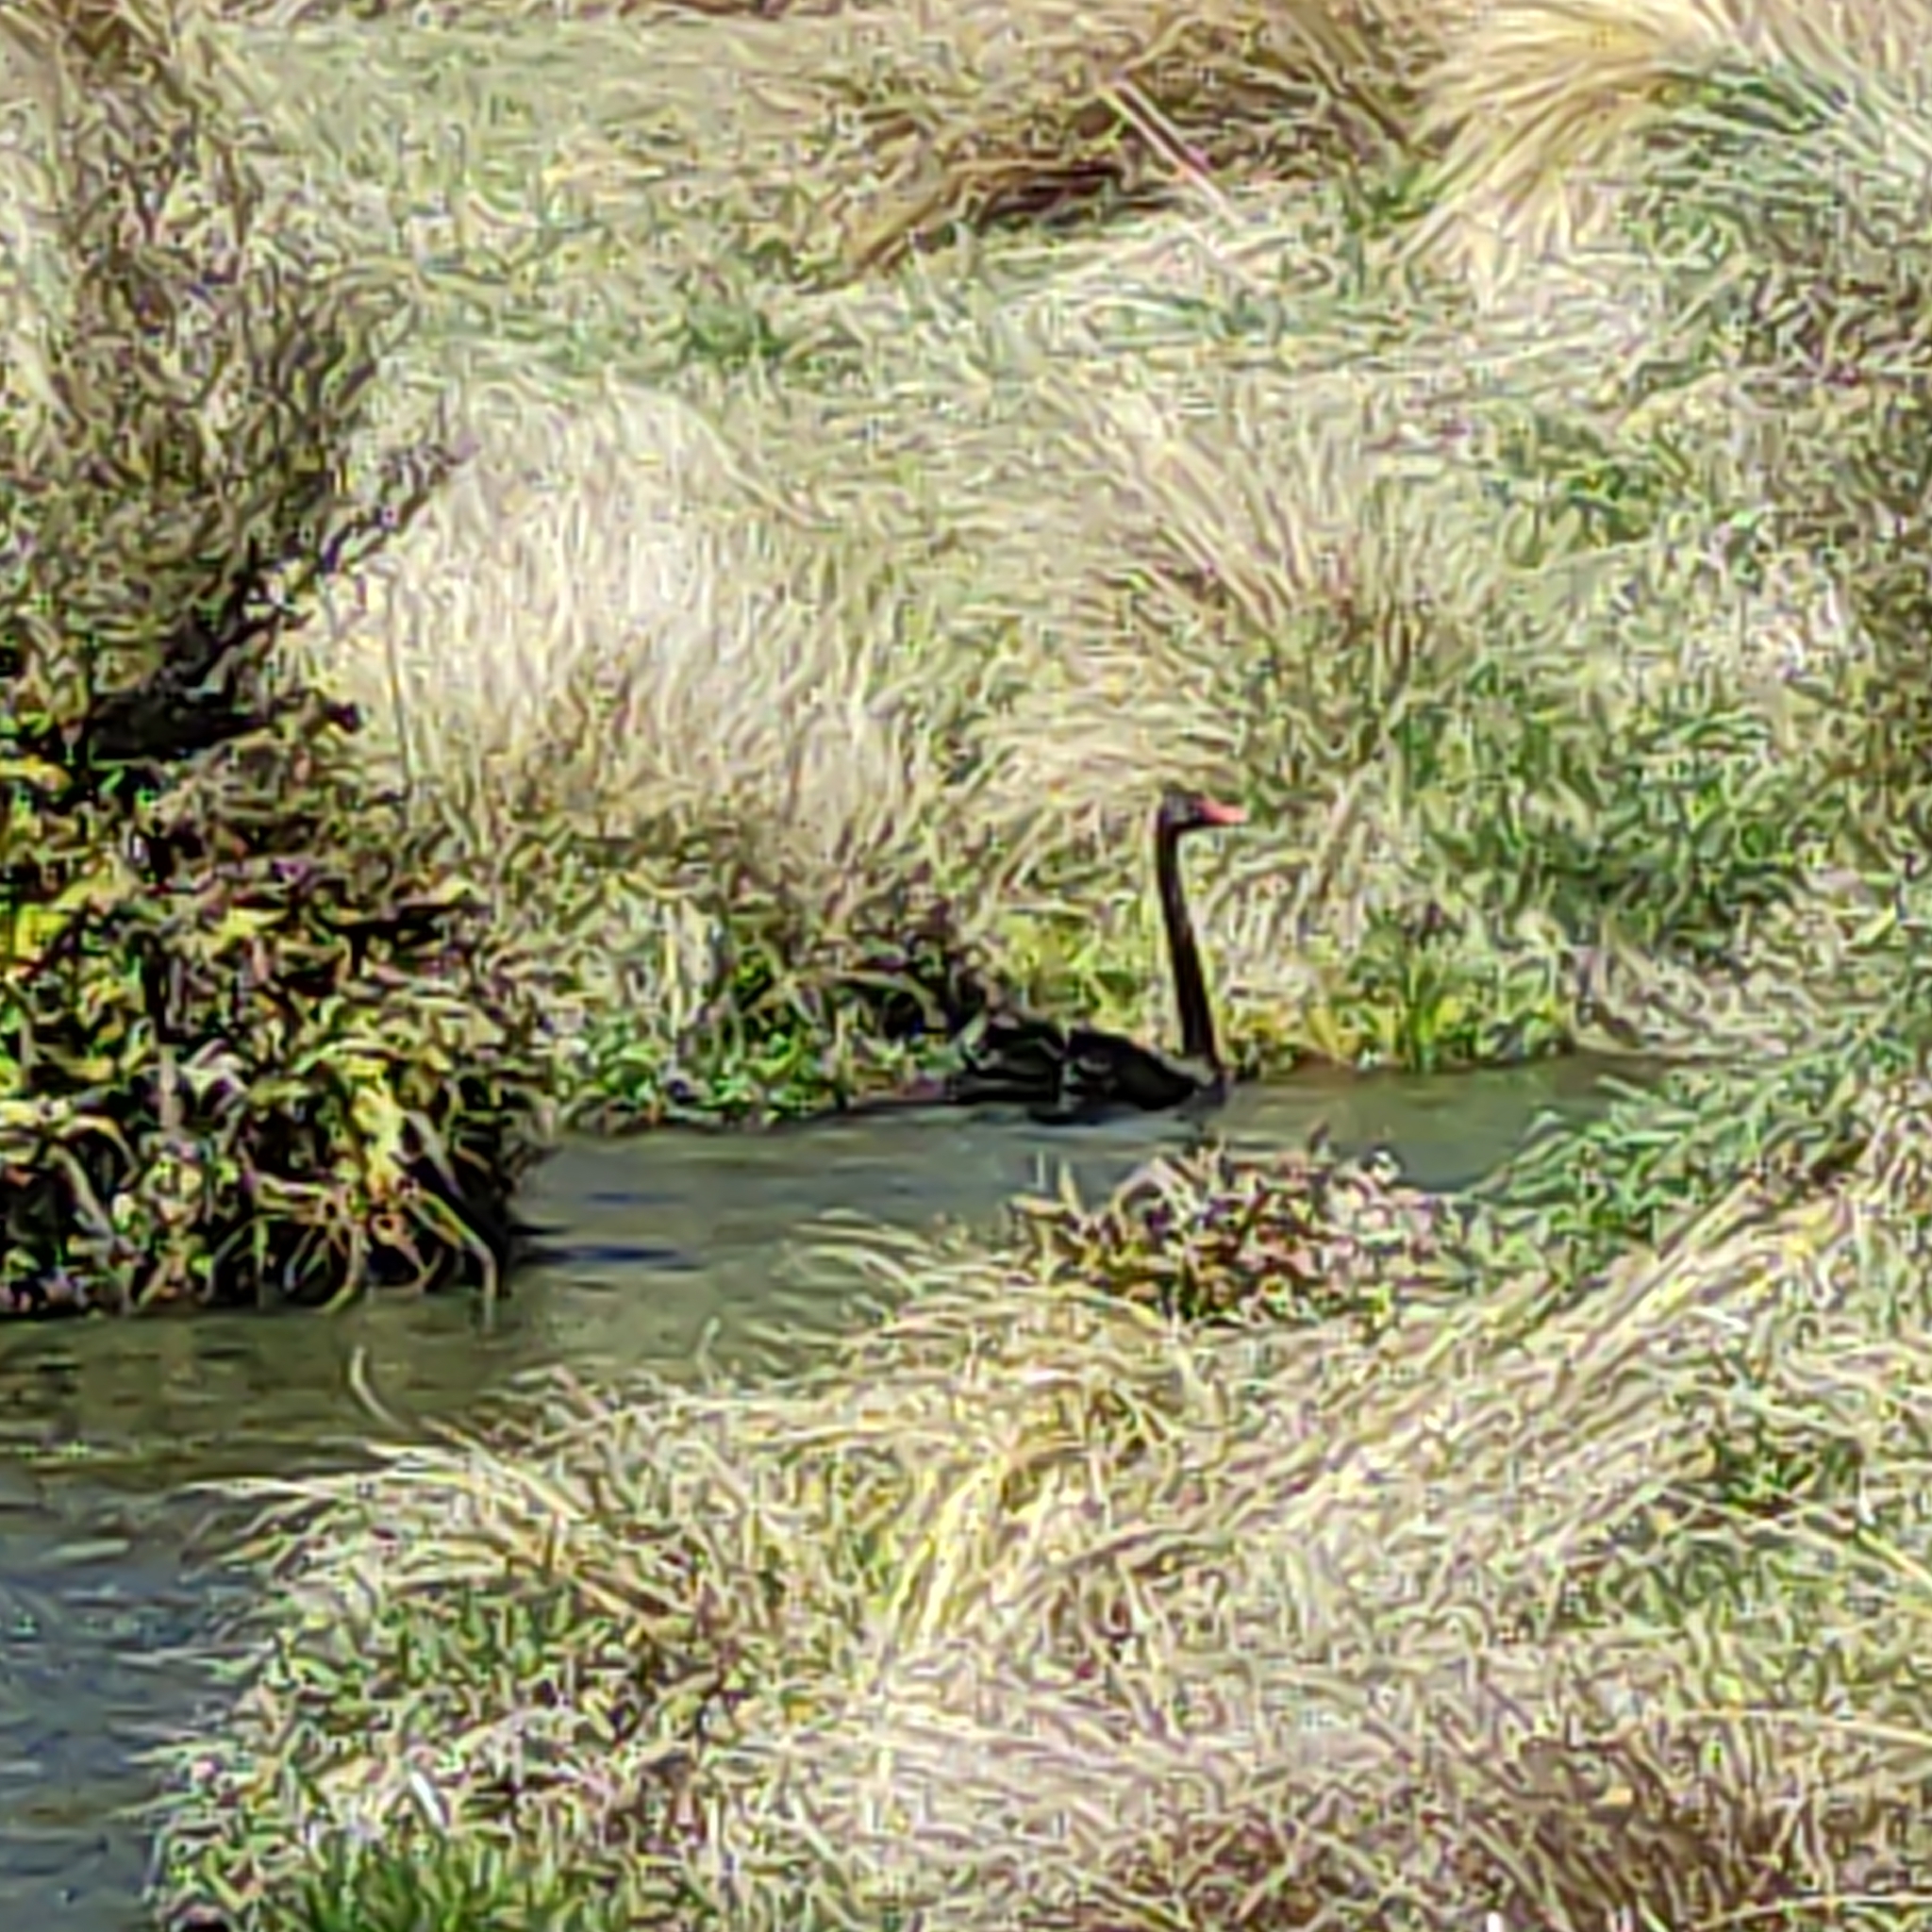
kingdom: Animalia
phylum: Chordata
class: Aves
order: Anseriformes
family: Anatidae
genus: Cygnus
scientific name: Cygnus atratus
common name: Black swan
